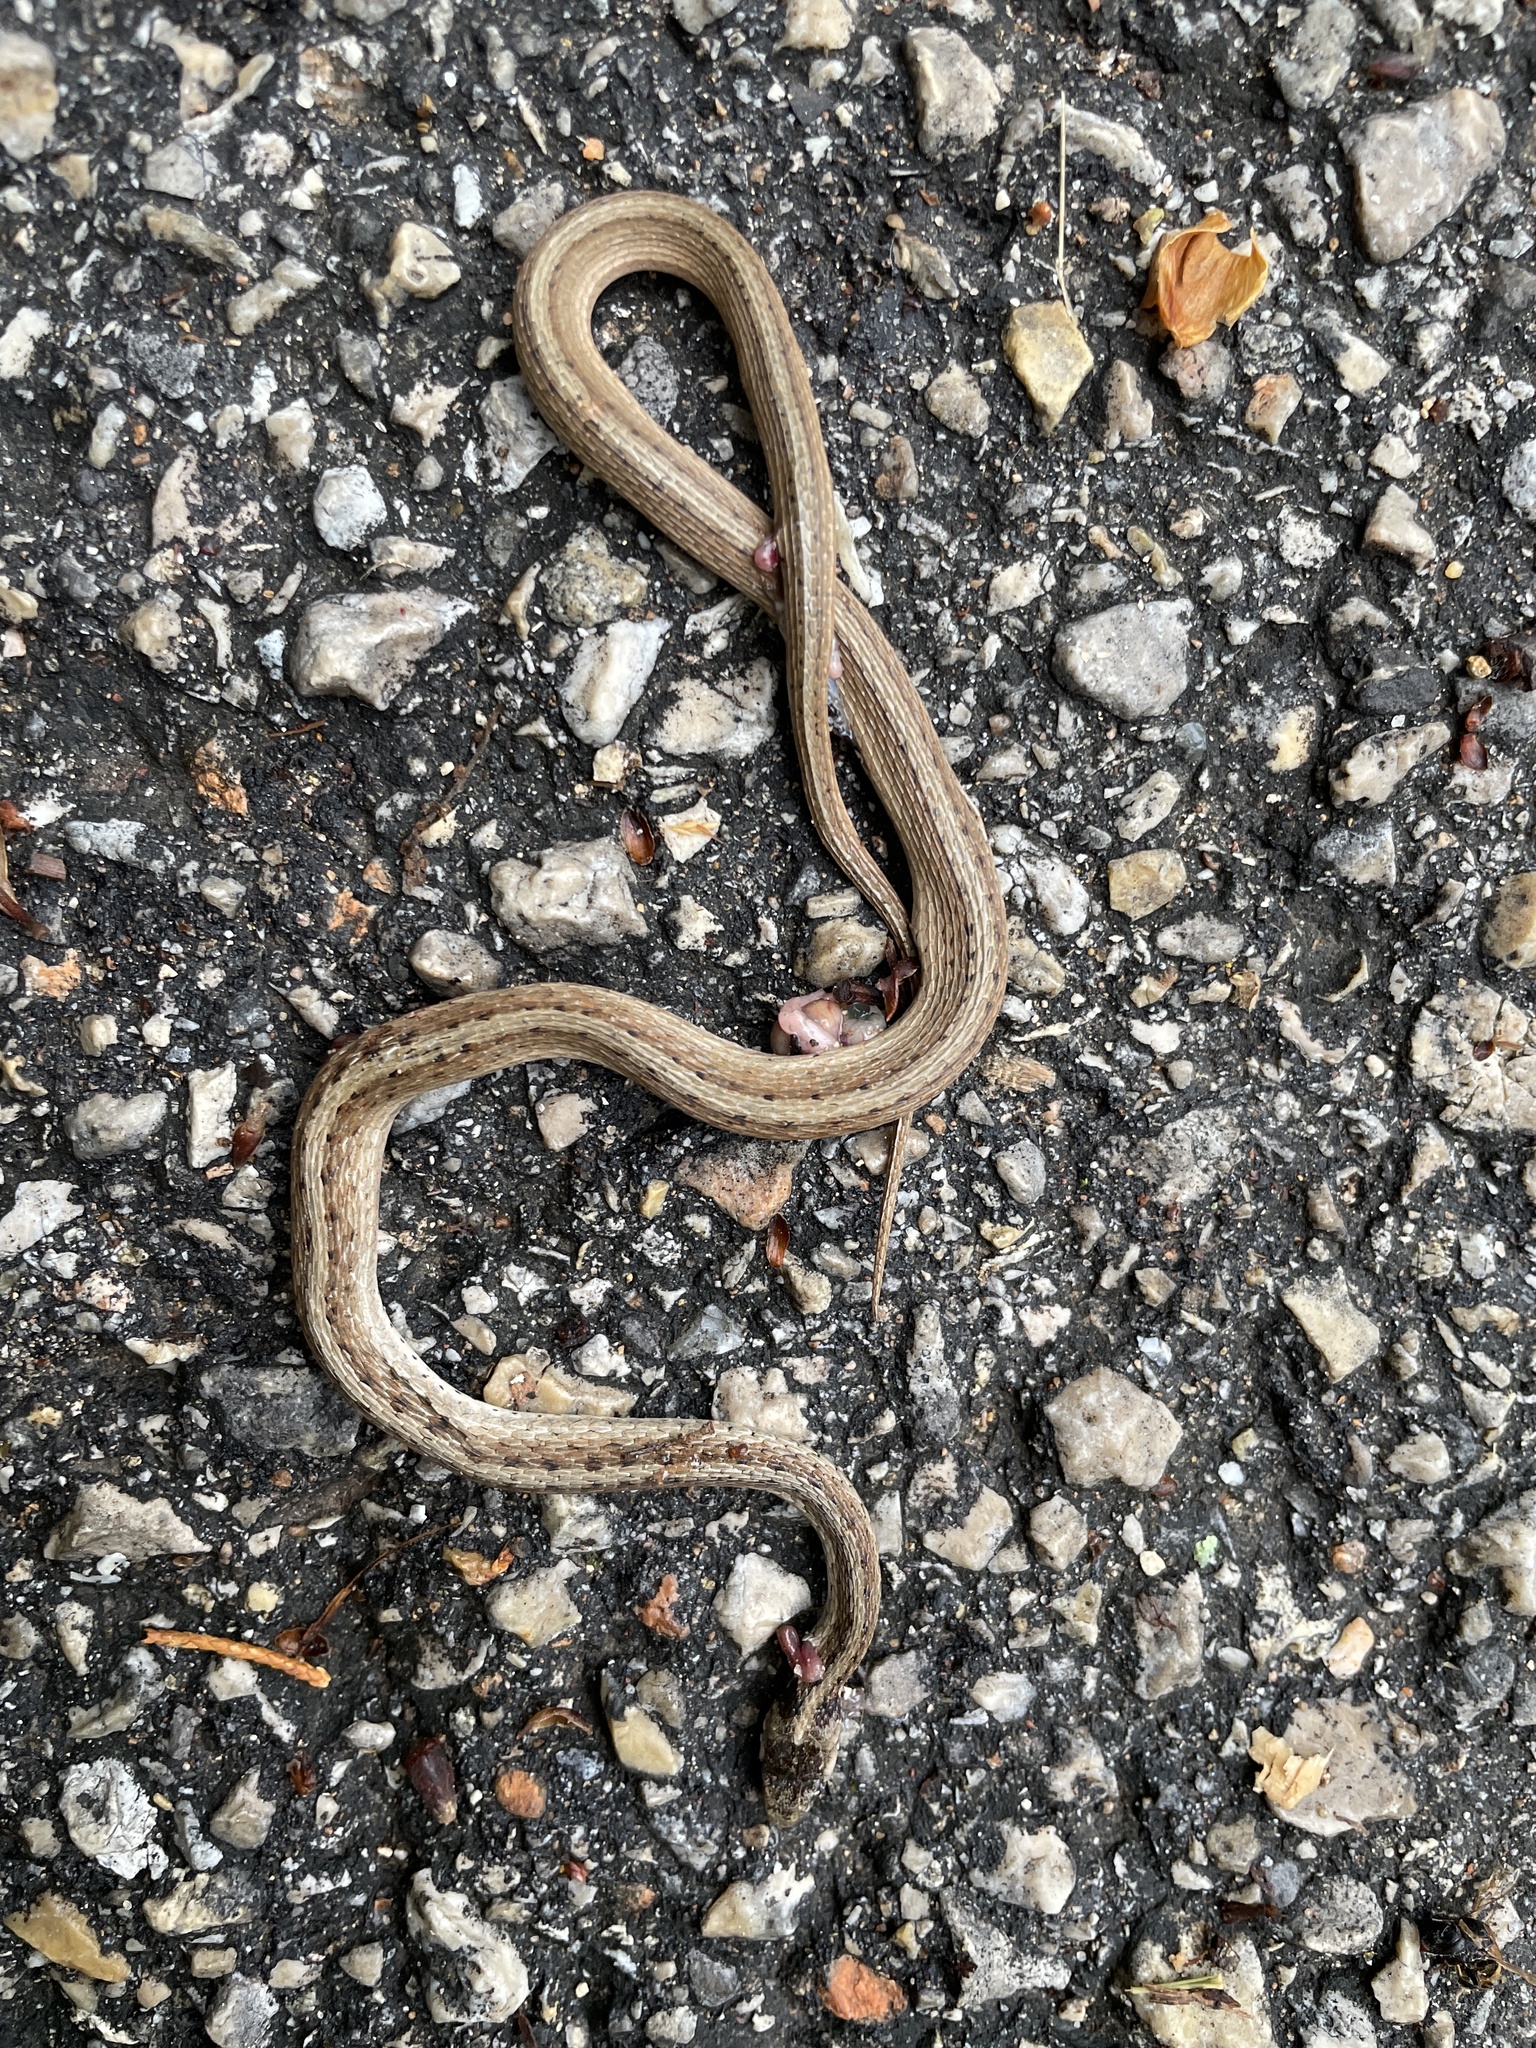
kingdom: Animalia
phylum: Chordata
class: Squamata
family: Colubridae
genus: Storeria
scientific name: Storeria dekayi
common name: (dekay’s) brown snake
